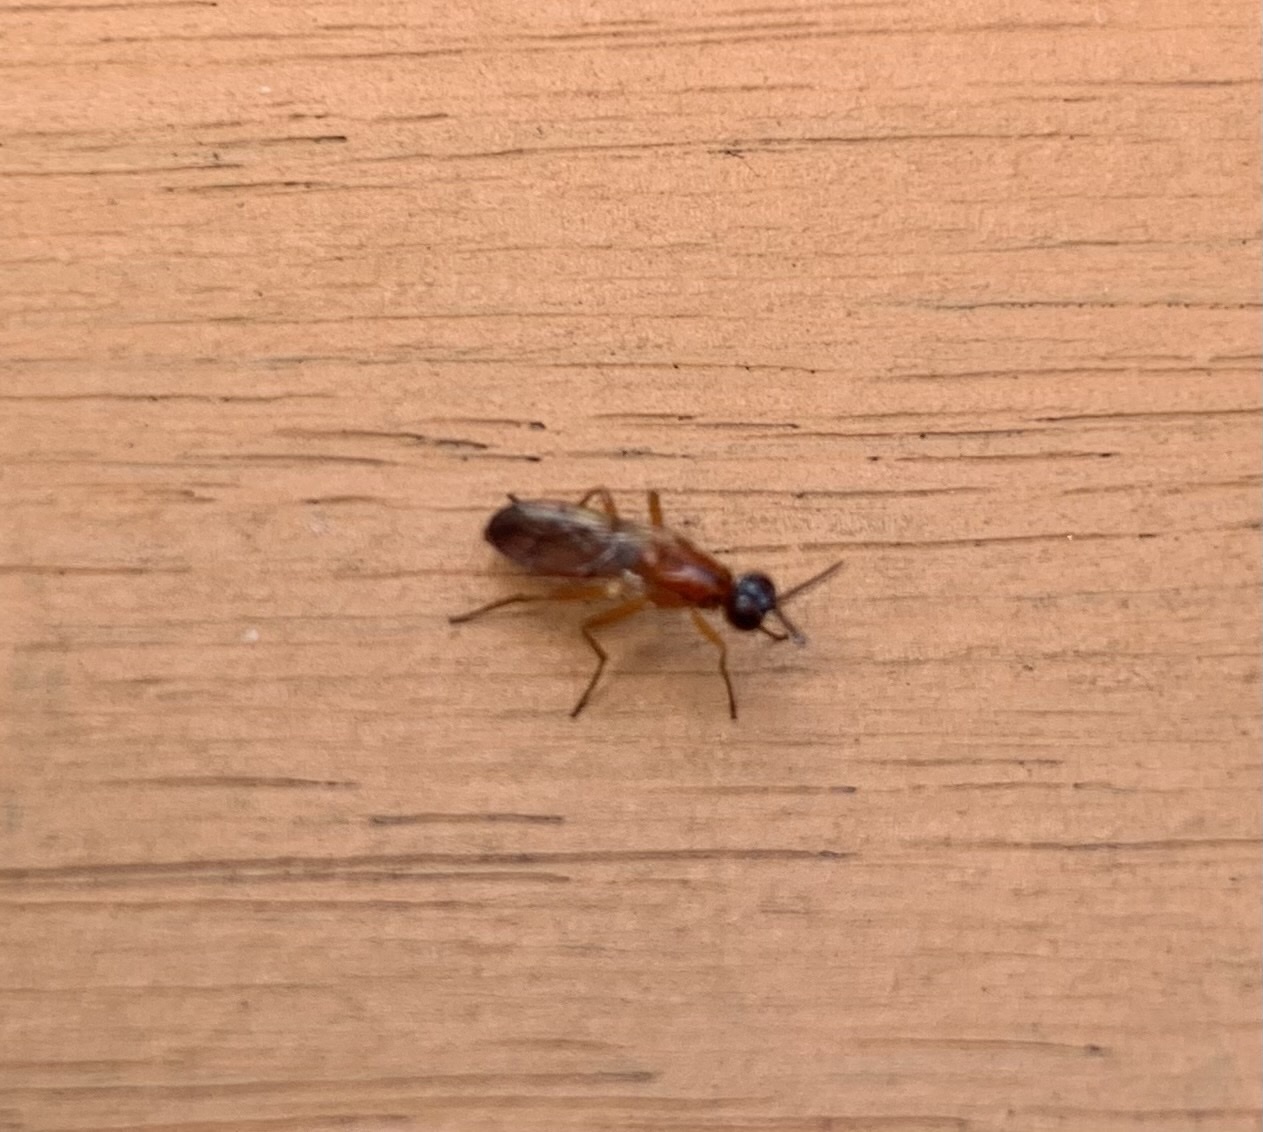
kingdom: Animalia
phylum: Arthropoda
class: Insecta
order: Diptera
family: Psilidae
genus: Loxocera
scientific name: Loxocera cylindrica
